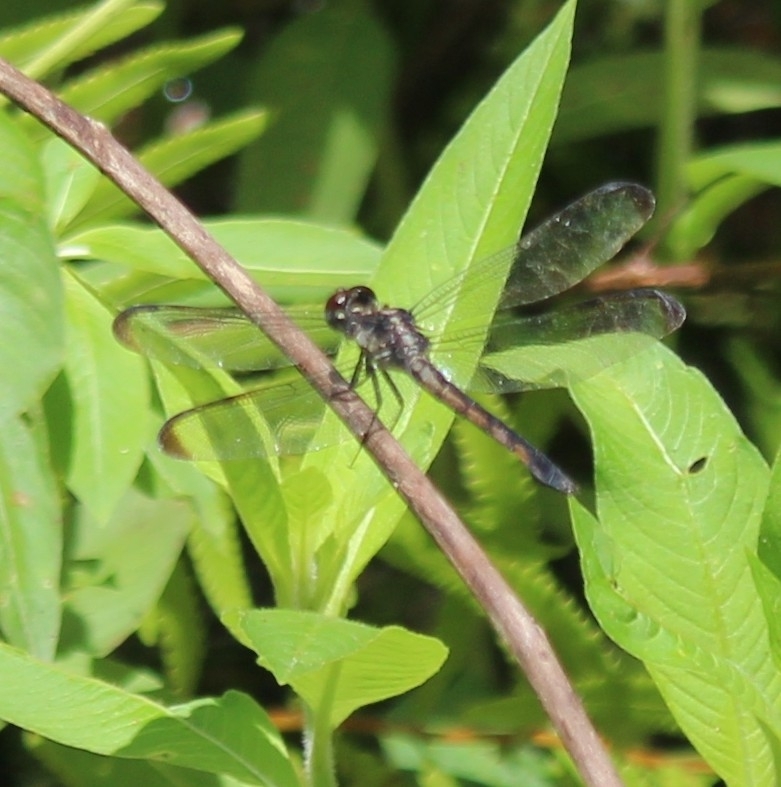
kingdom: Animalia
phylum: Arthropoda
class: Insecta
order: Odonata
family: Libellulidae
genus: Libellula
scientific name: Libellula incesta
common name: Slaty skimmer
